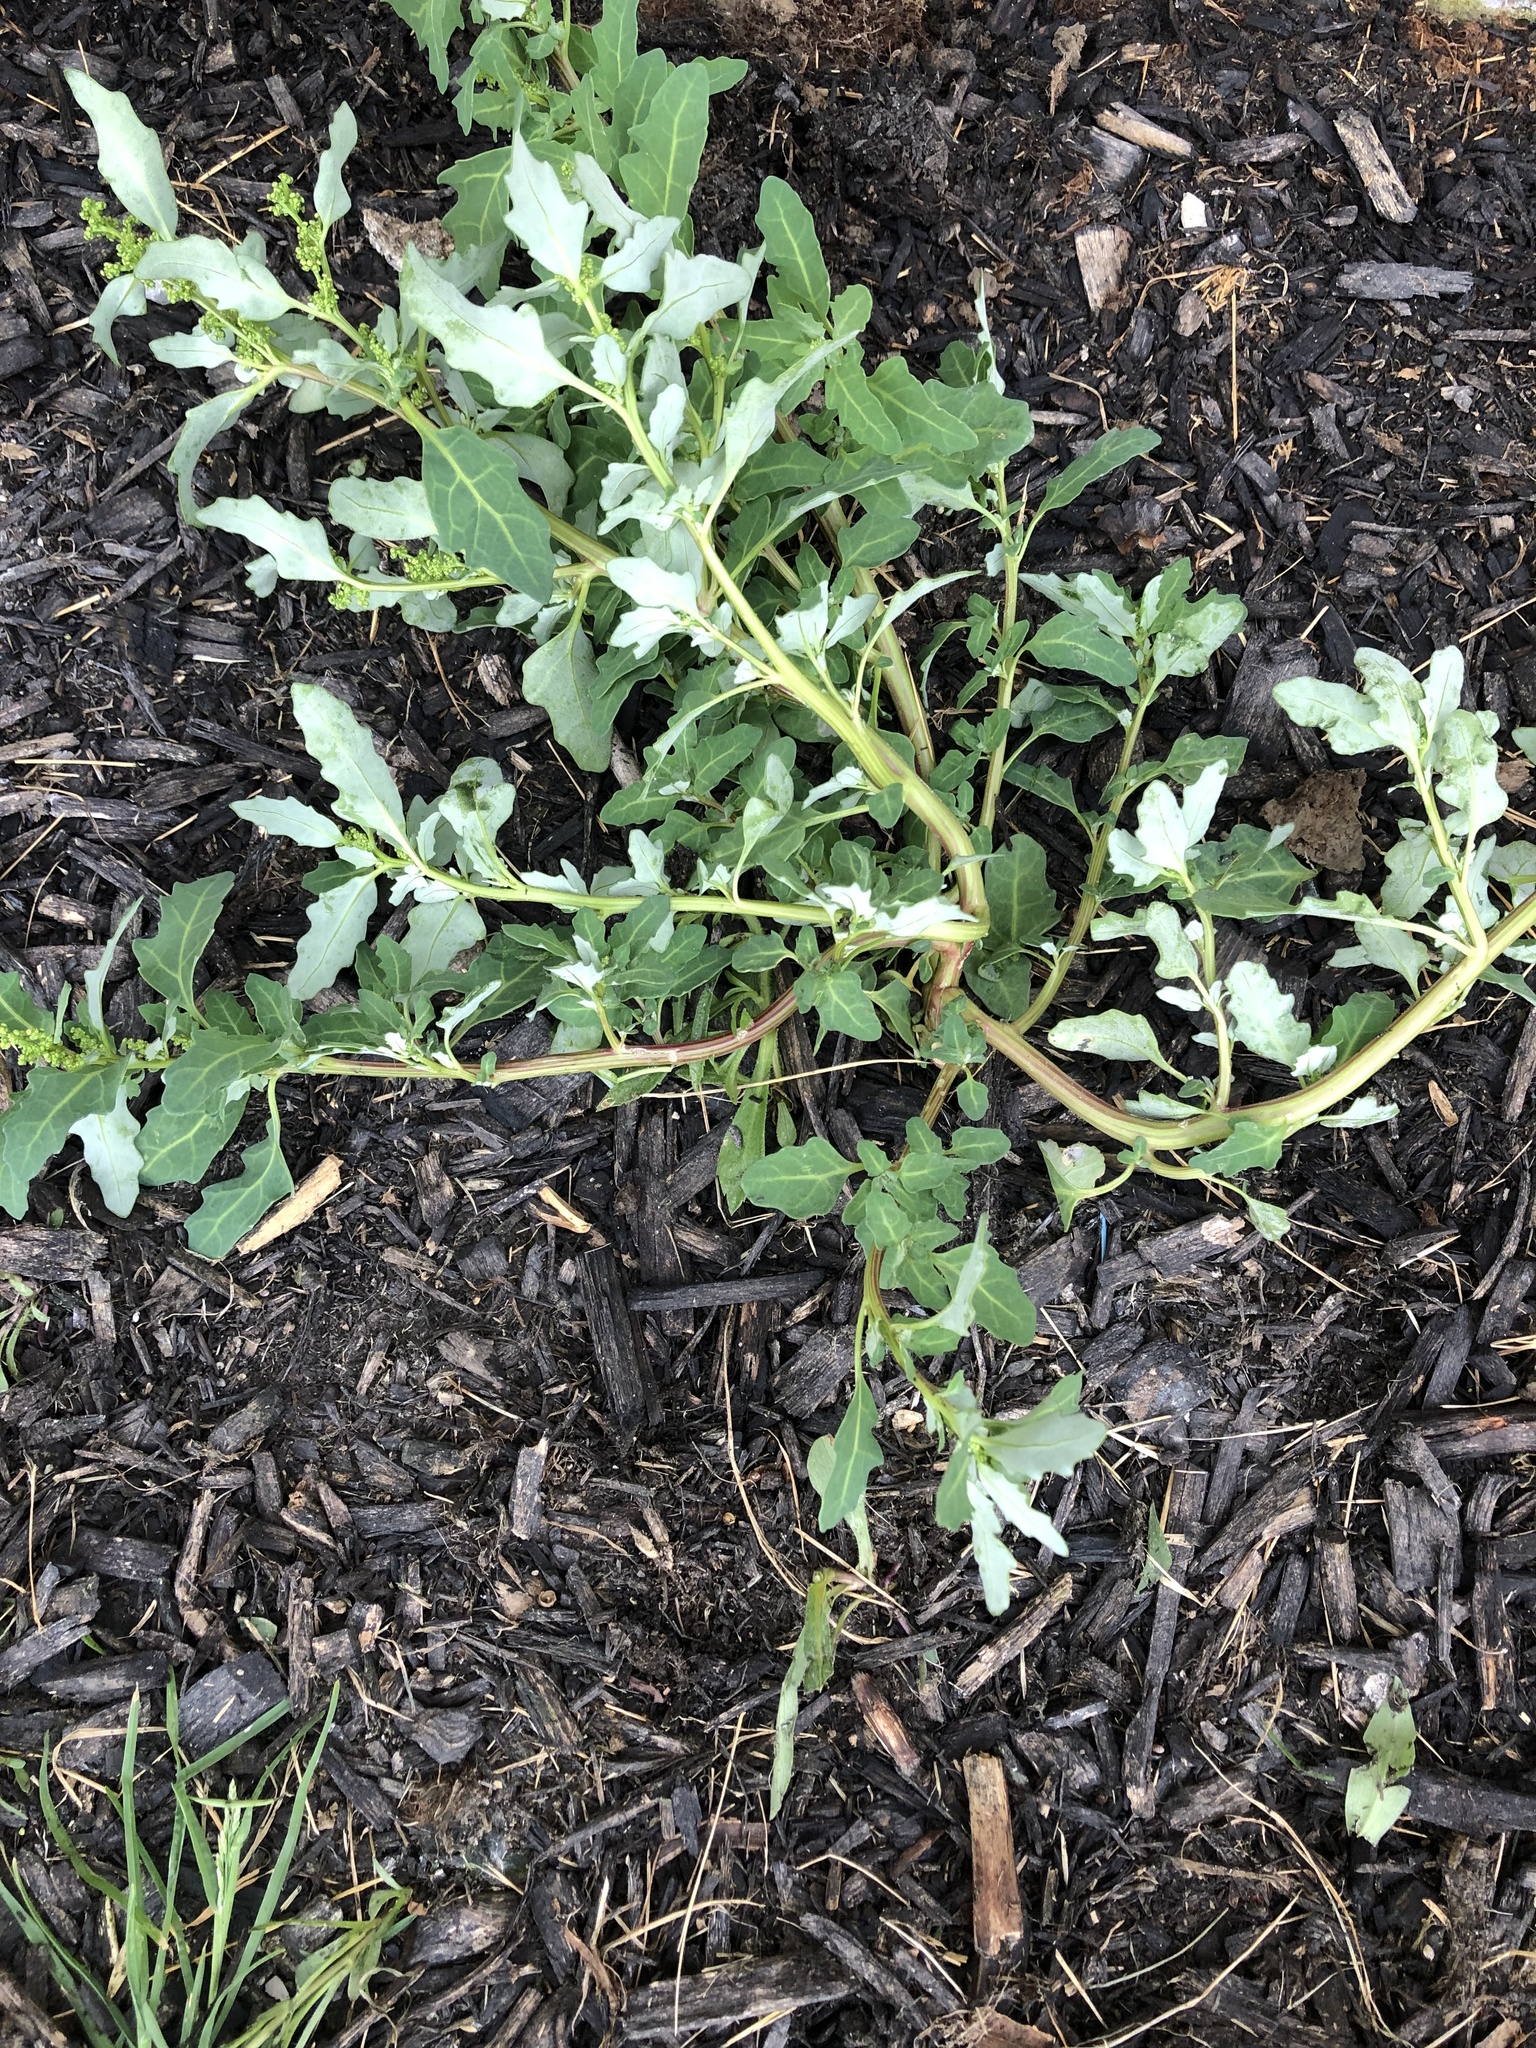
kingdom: Plantae
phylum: Tracheophyta
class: Magnoliopsida
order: Caryophyllales
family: Amaranthaceae
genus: Oxybasis
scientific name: Oxybasis glauca
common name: Glaucous goosefoot
